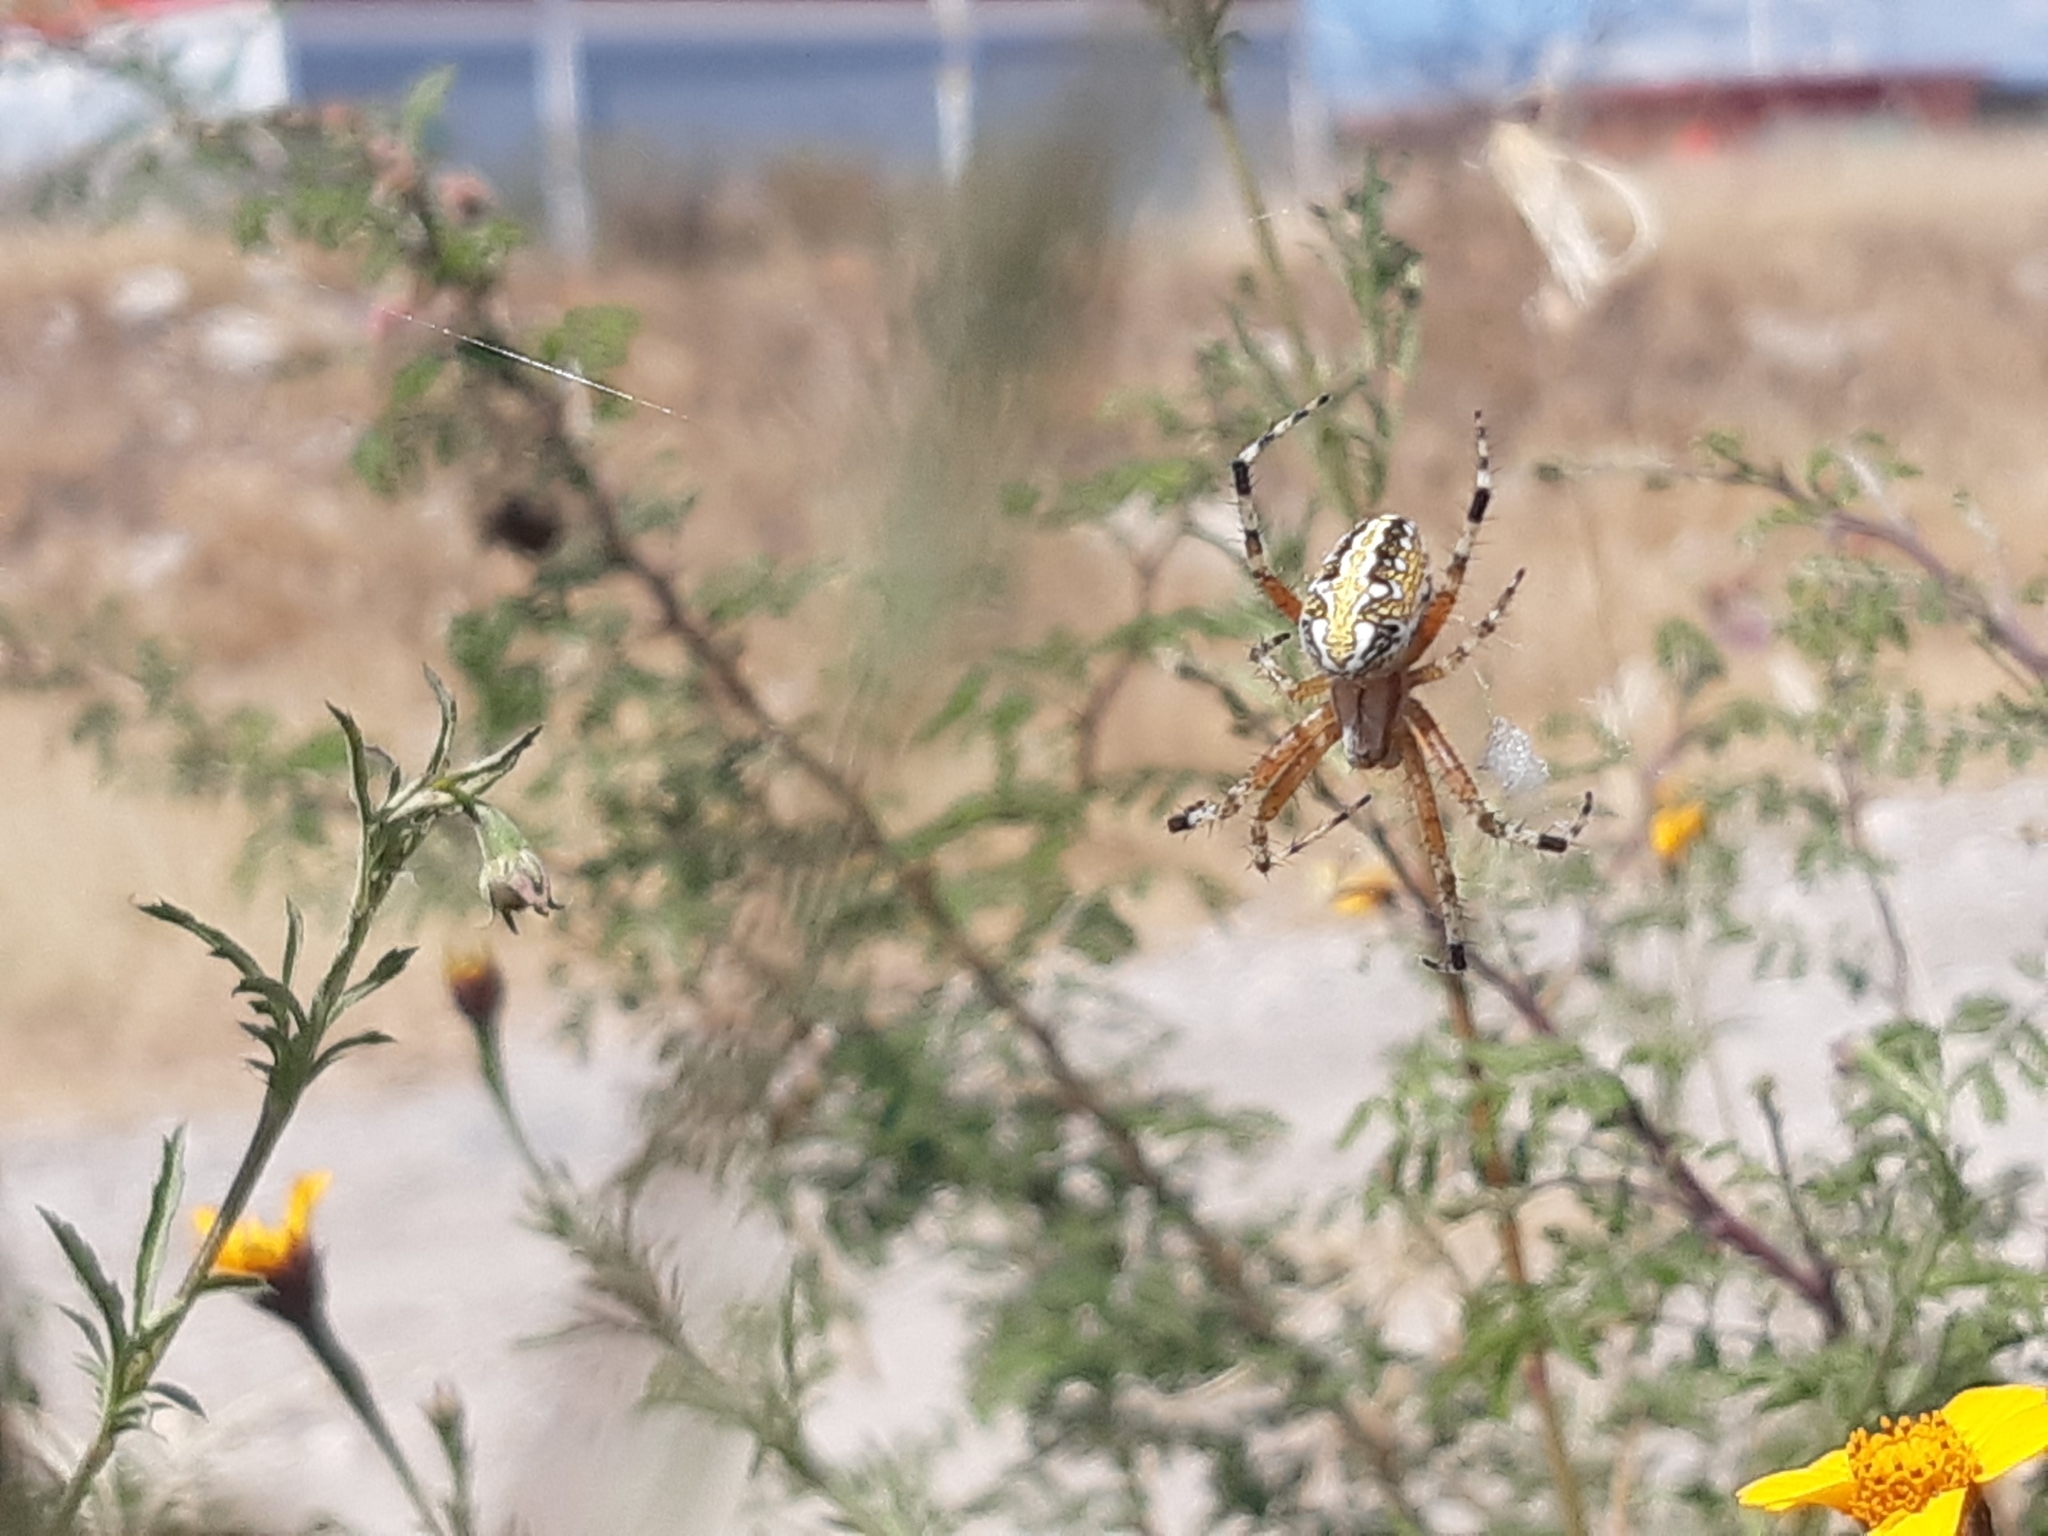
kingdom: Animalia
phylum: Arthropoda
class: Arachnida
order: Araneae
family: Araneidae
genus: Neoscona
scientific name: Neoscona oaxacensis
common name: Orb weavers
